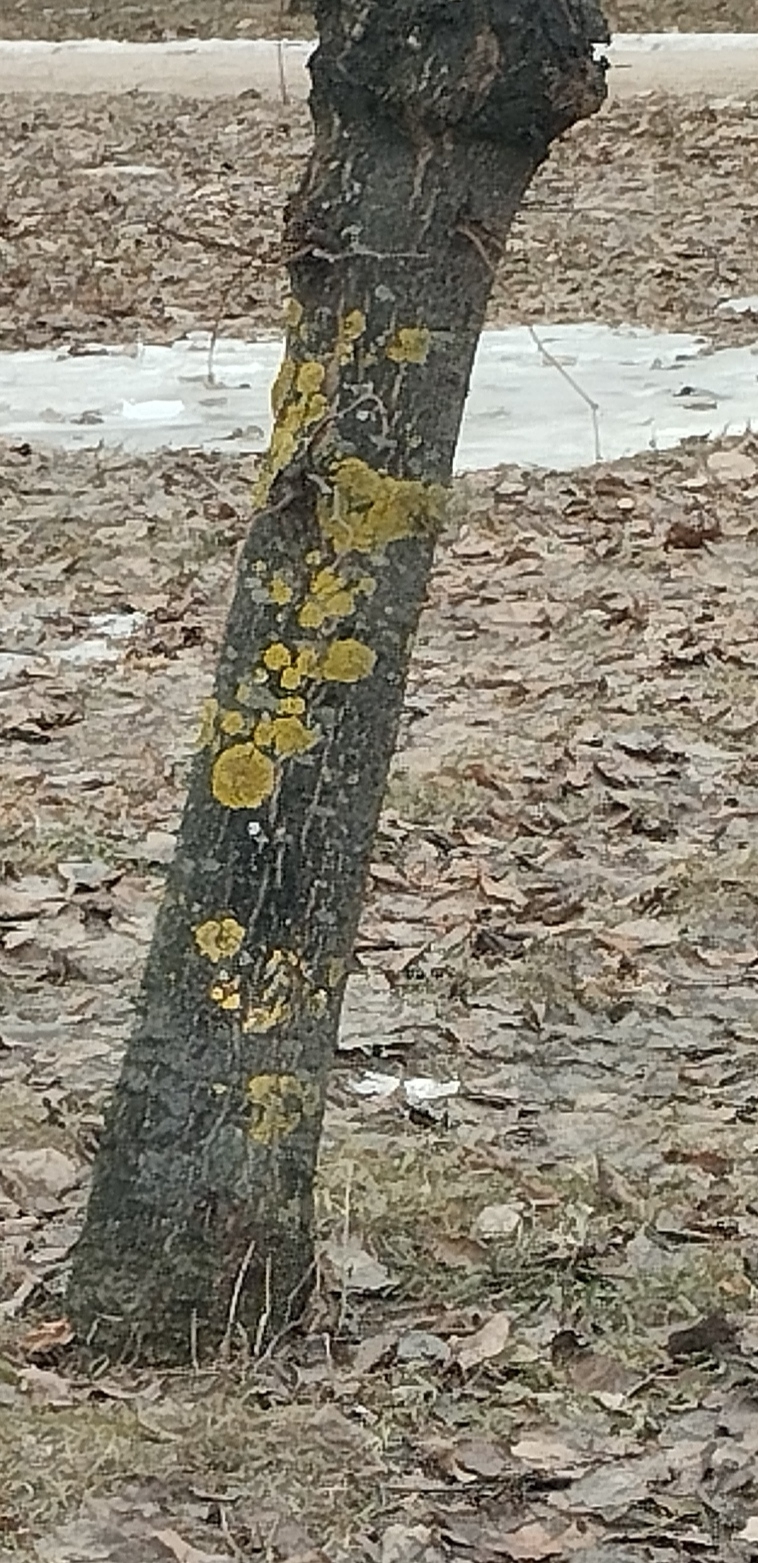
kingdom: Fungi
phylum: Ascomycota
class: Lecanoromycetes
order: Teloschistales
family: Teloschistaceae
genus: Xanthoria
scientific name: Xanthoria parietina
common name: Common orange lichen
